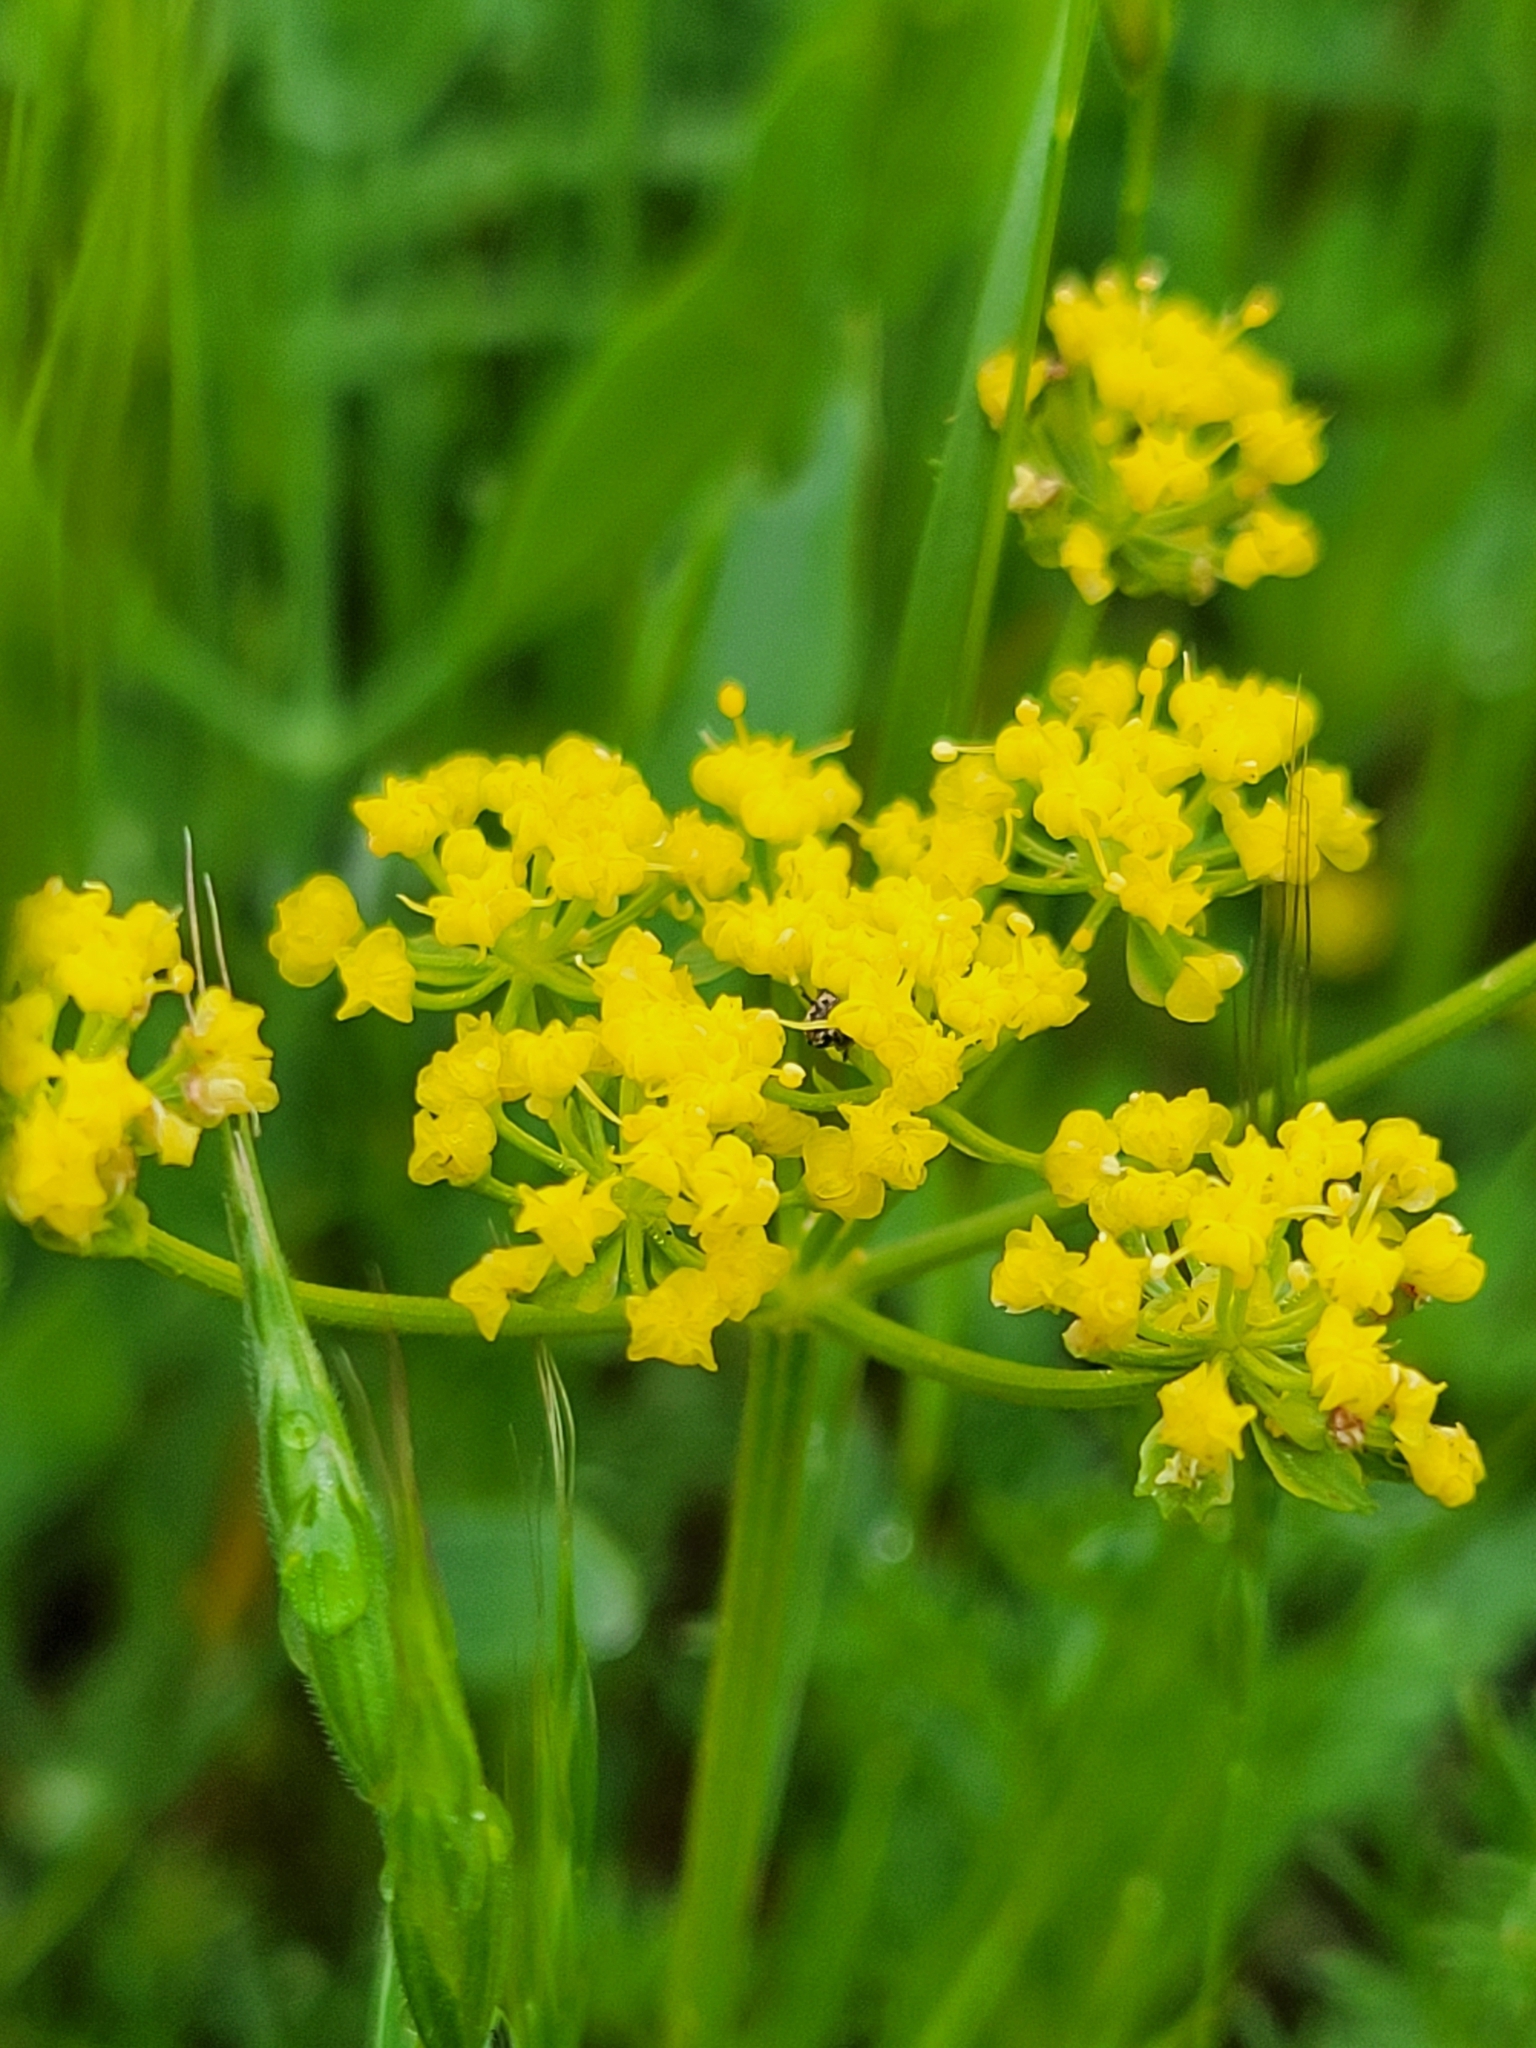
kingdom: Plantae
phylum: Tracheophyta
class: Magnoliopsida
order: Apiales
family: Apiaceae
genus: Lomatium
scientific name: Lomatium utriculatum
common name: Fine-leaf desert-parsley
